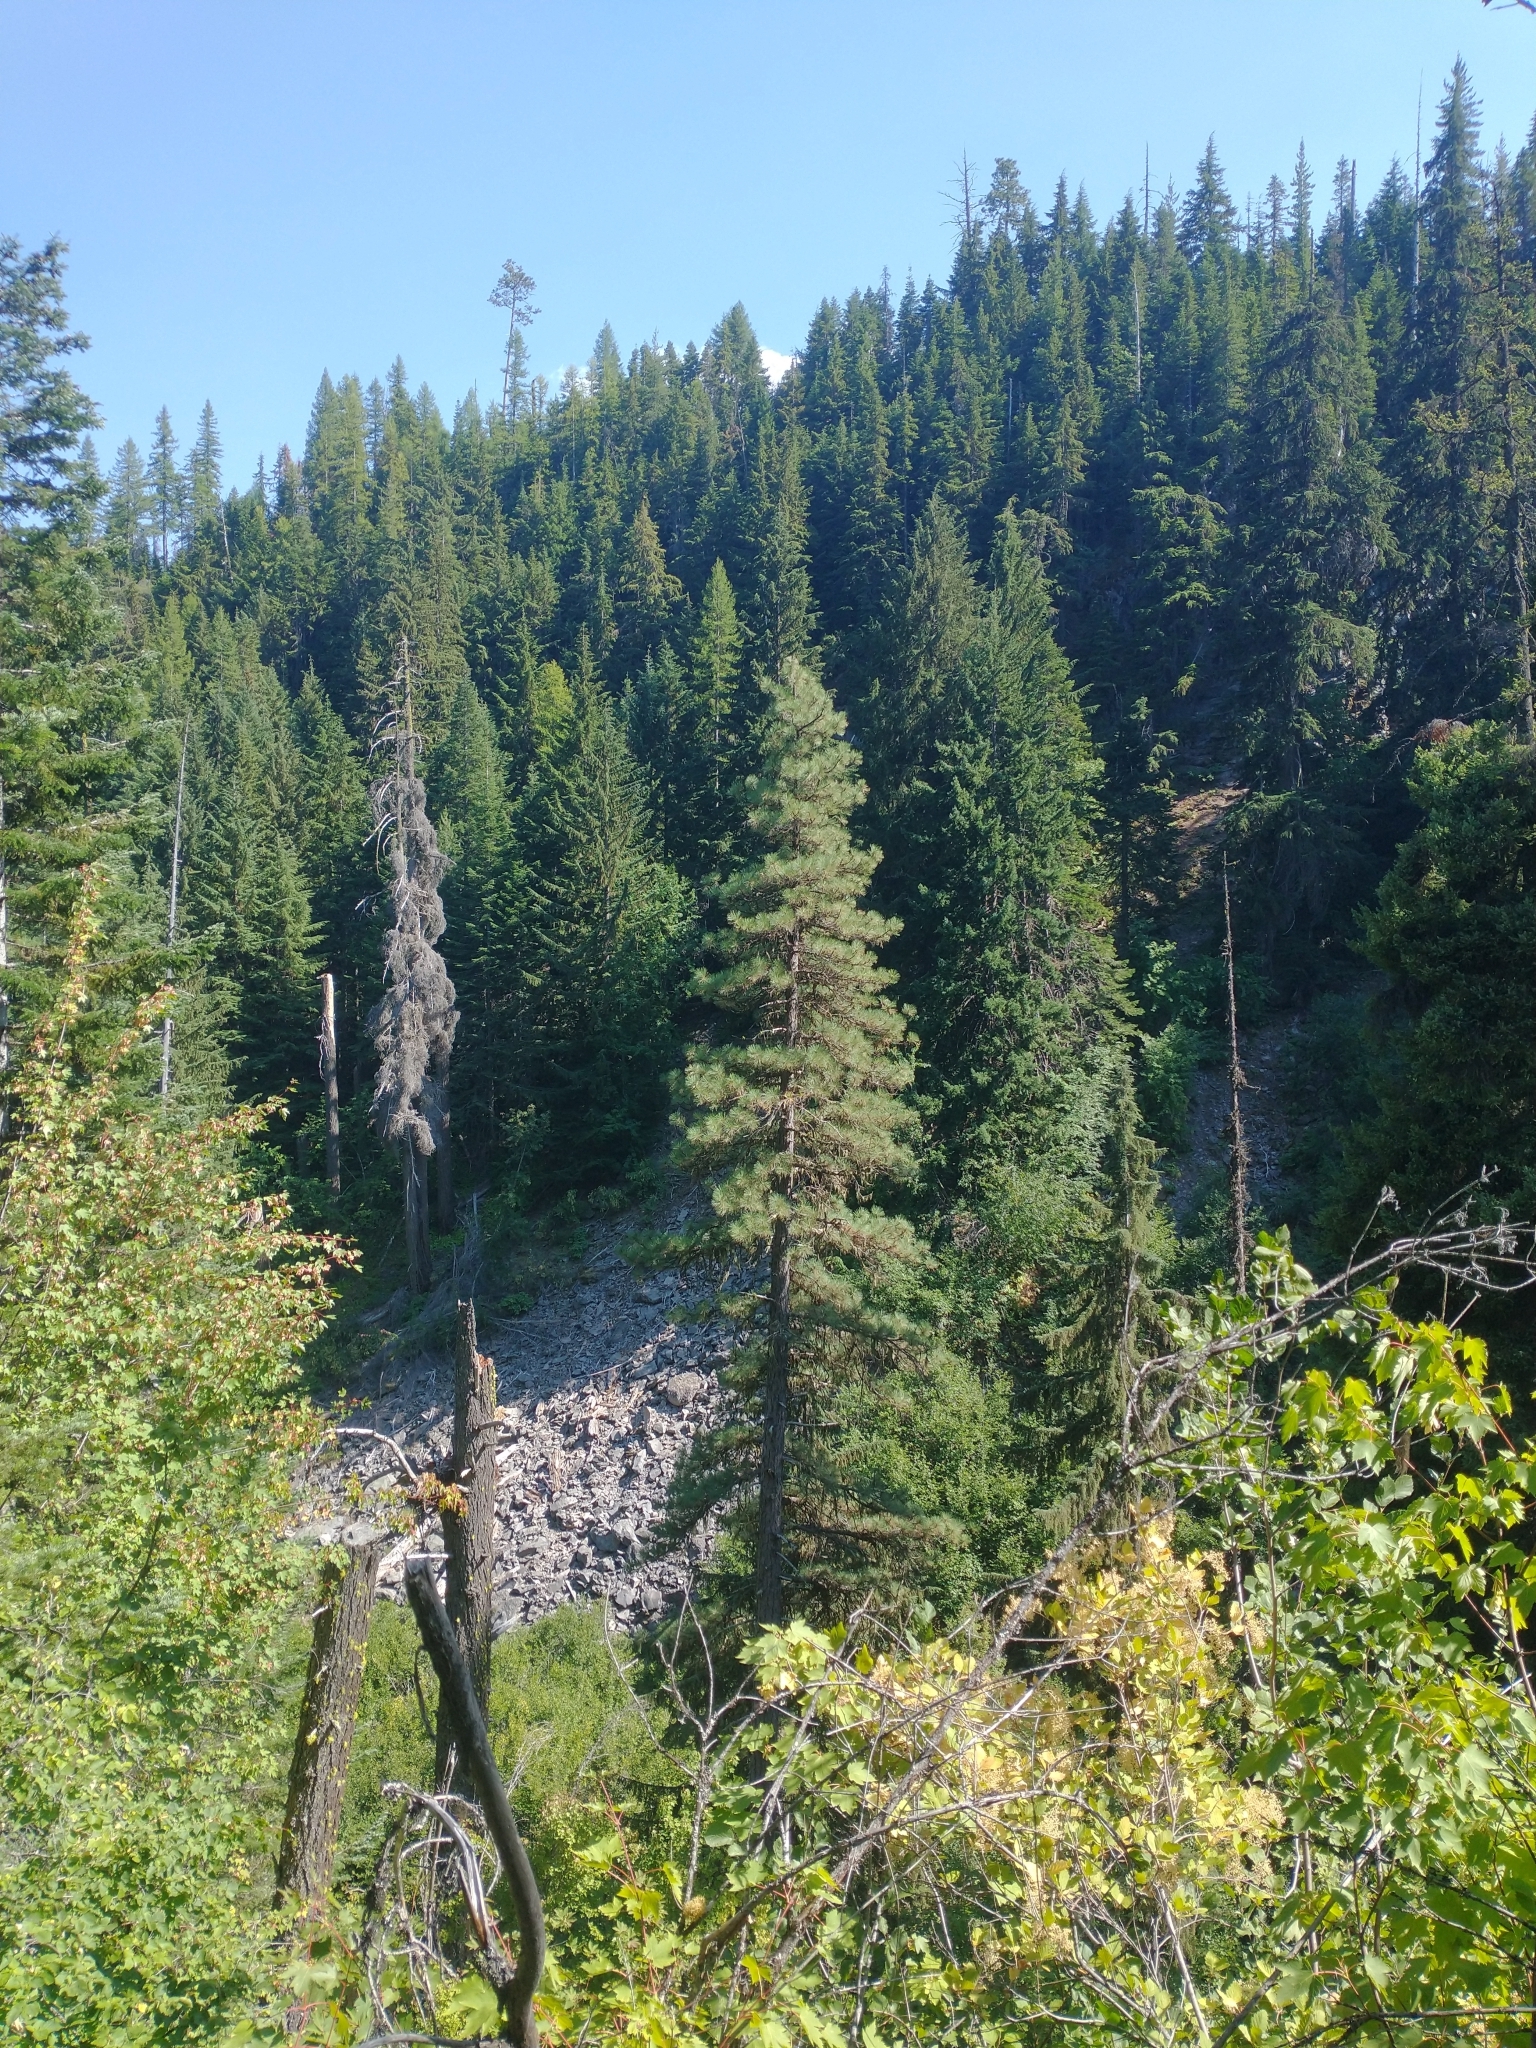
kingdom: Plantae
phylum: Tracheophyta
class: Pinopsida
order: Pinales
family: Pinaceae
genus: Pinus
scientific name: Pinus ponderosa
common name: Western yellow-pine
